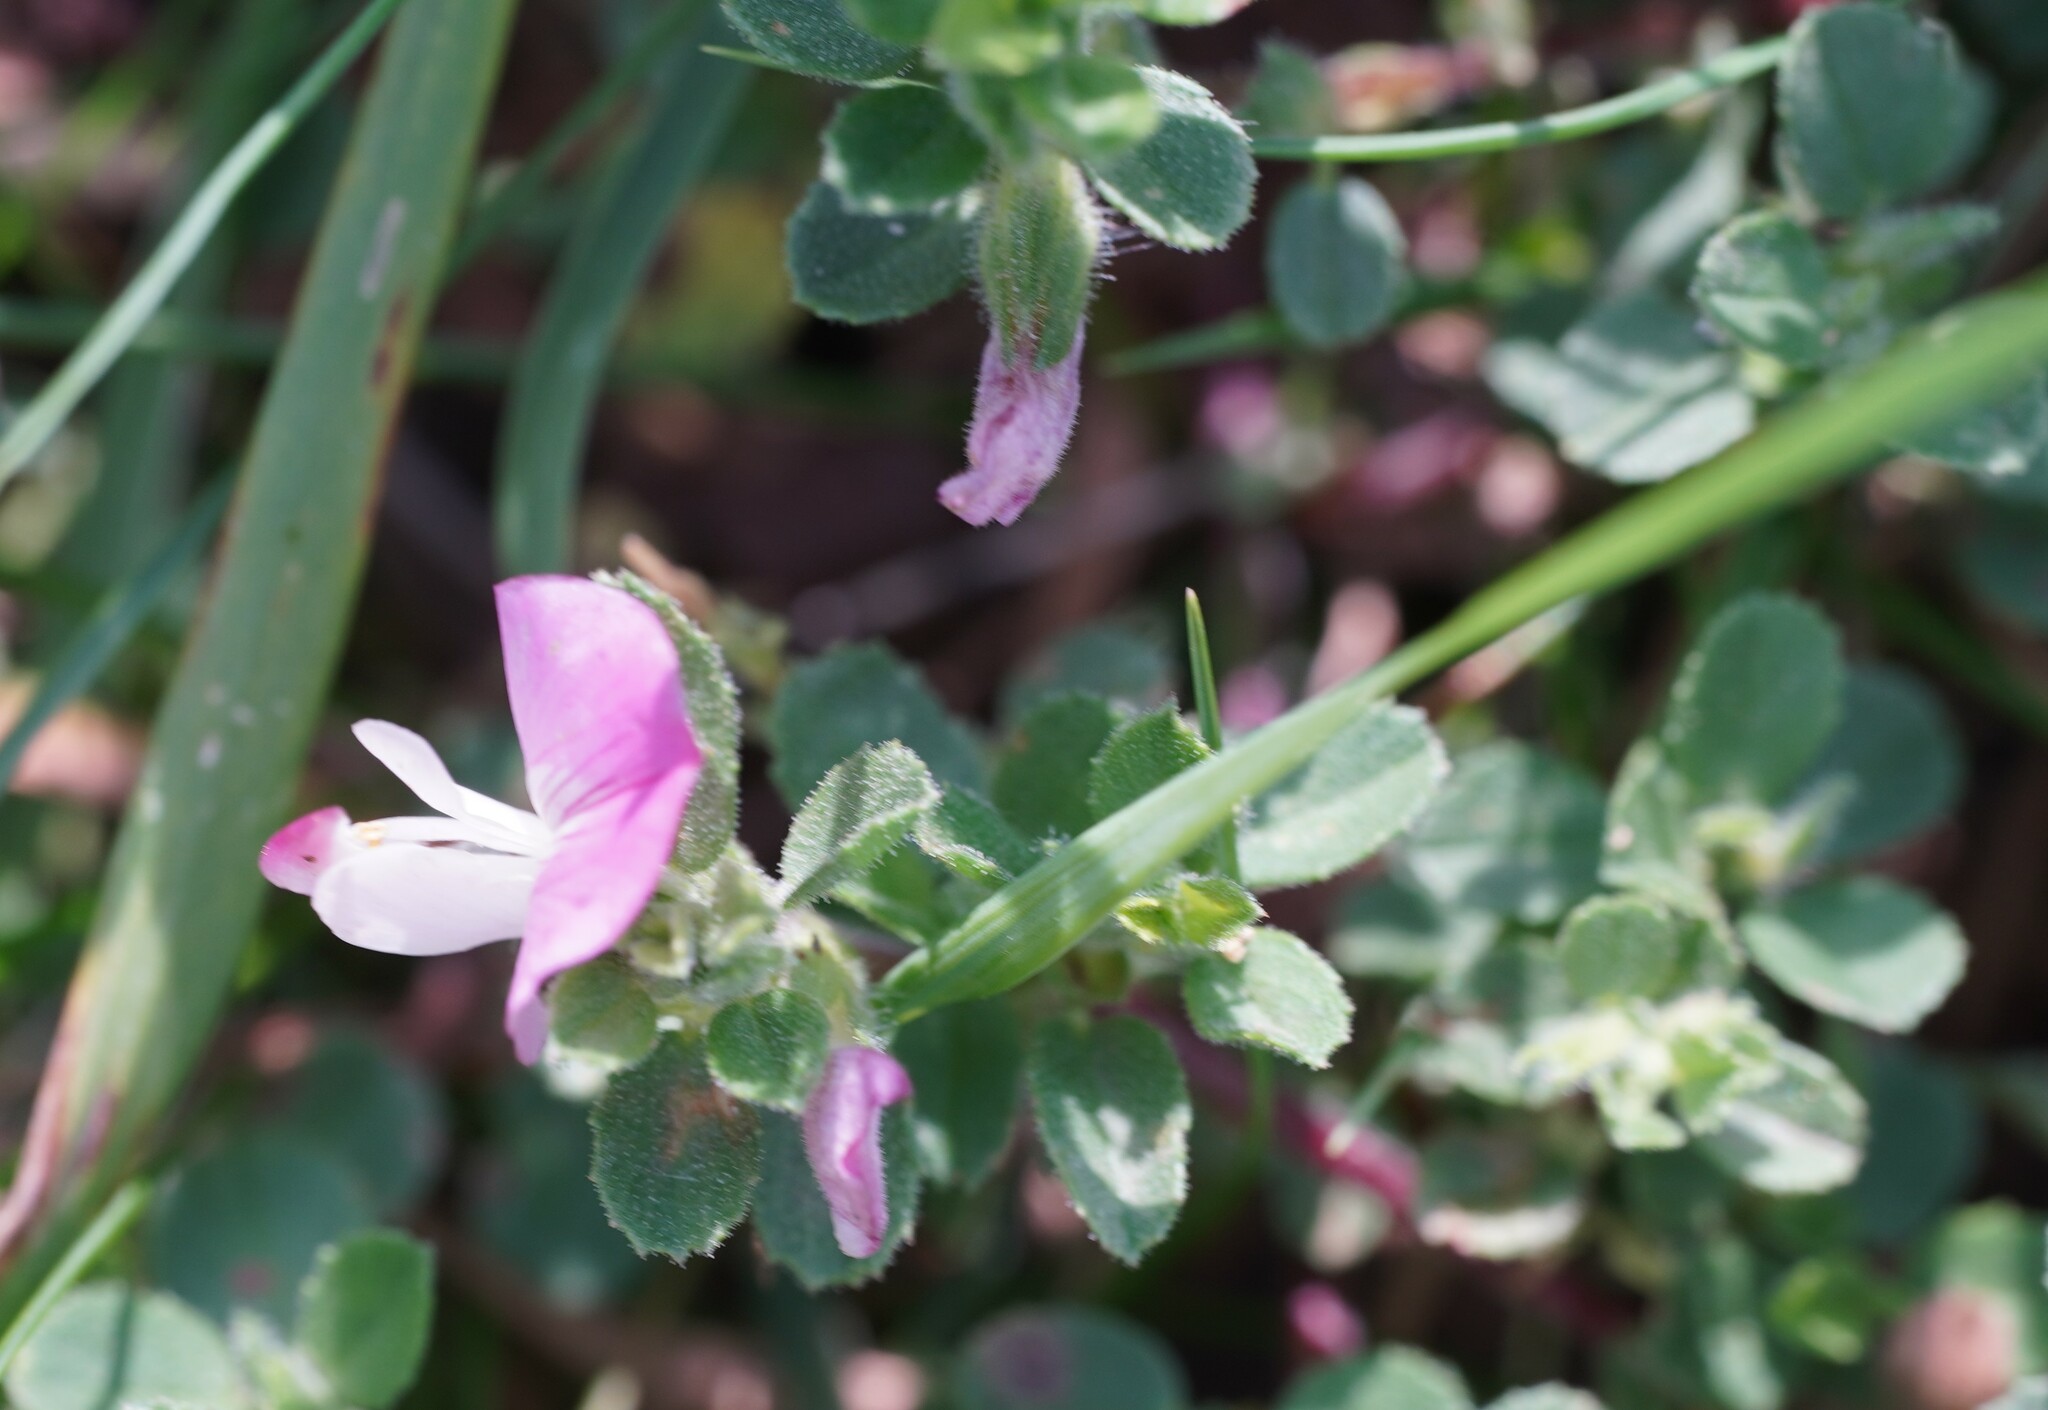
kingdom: Plantae
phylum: Tracheophyta
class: Magnoliopsida
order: Fabales
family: Fabaceae
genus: Ononis
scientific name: Ononis spinosa
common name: Spiny restharrow
